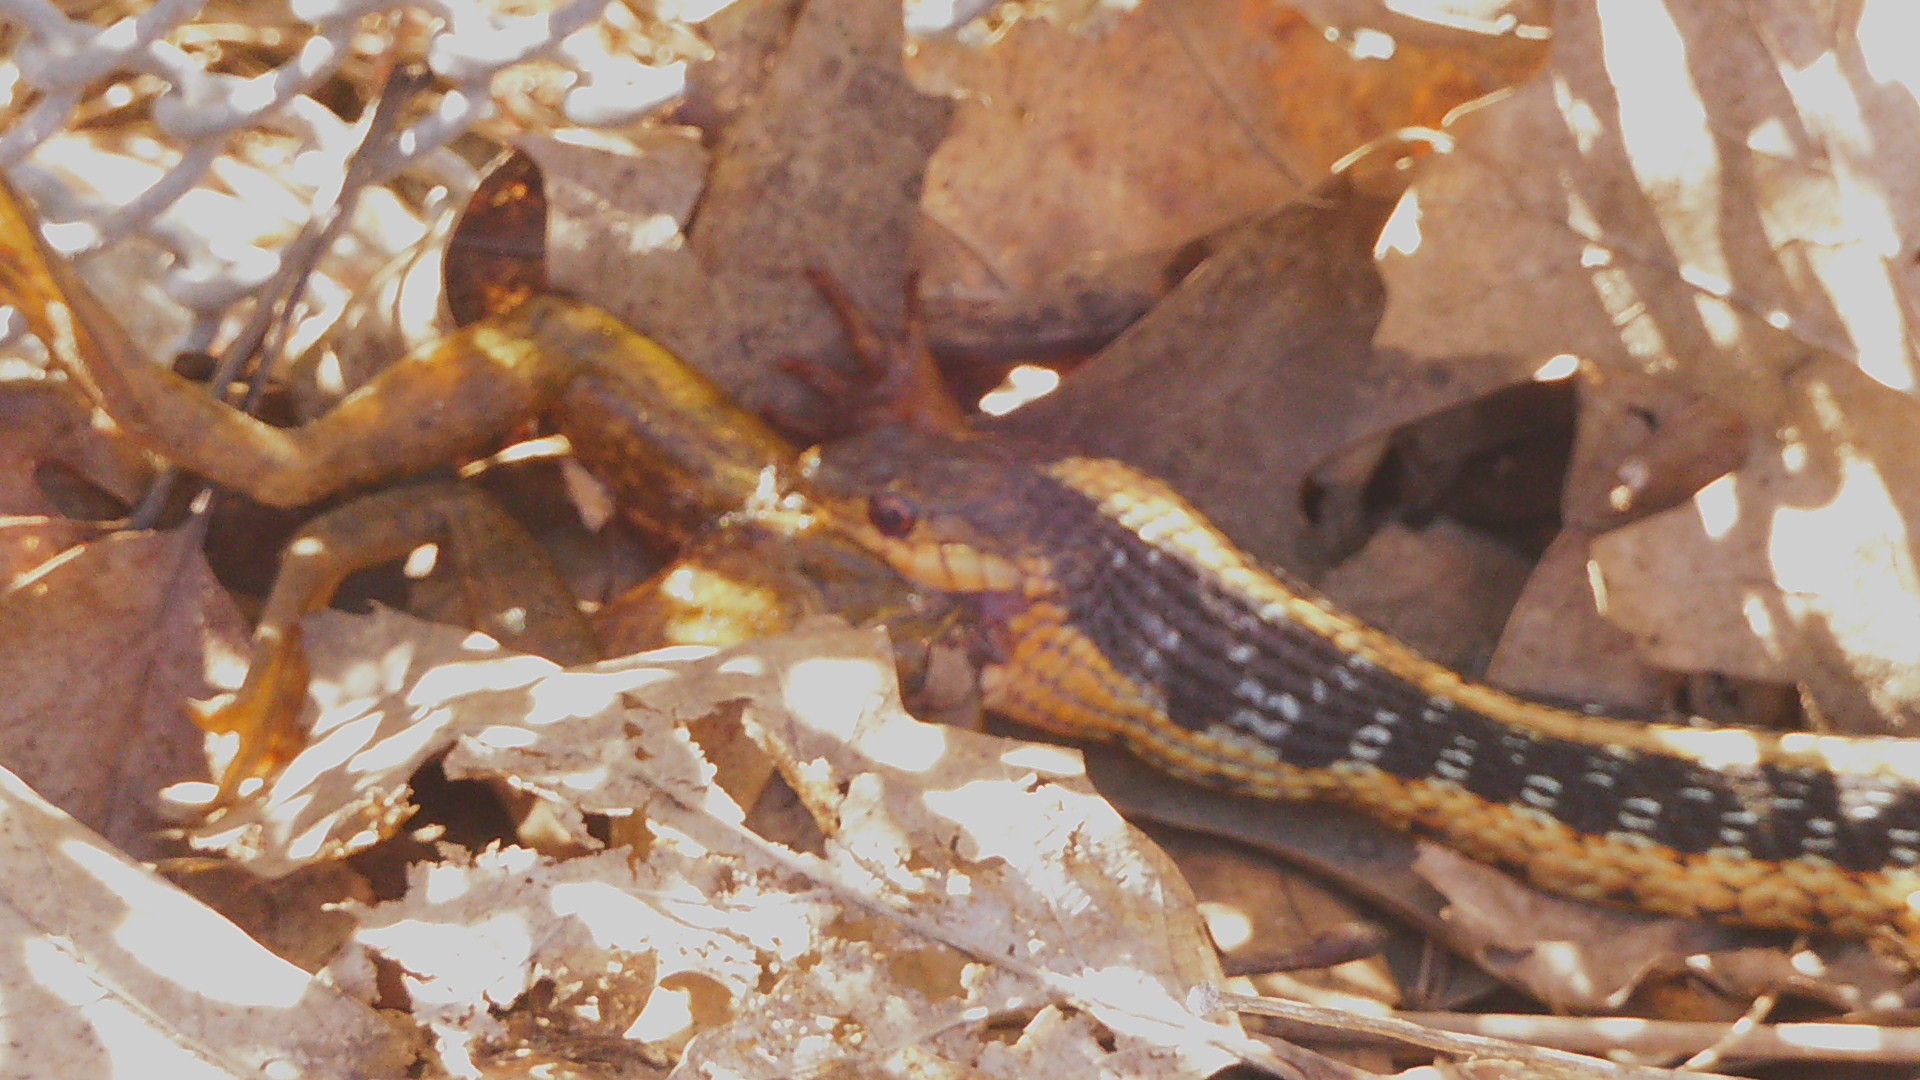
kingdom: Animalia
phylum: Chordata
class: Squamata
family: Colubridae
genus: Thamnophis
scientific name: Thamnophis sirtalis
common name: Common garter snake
